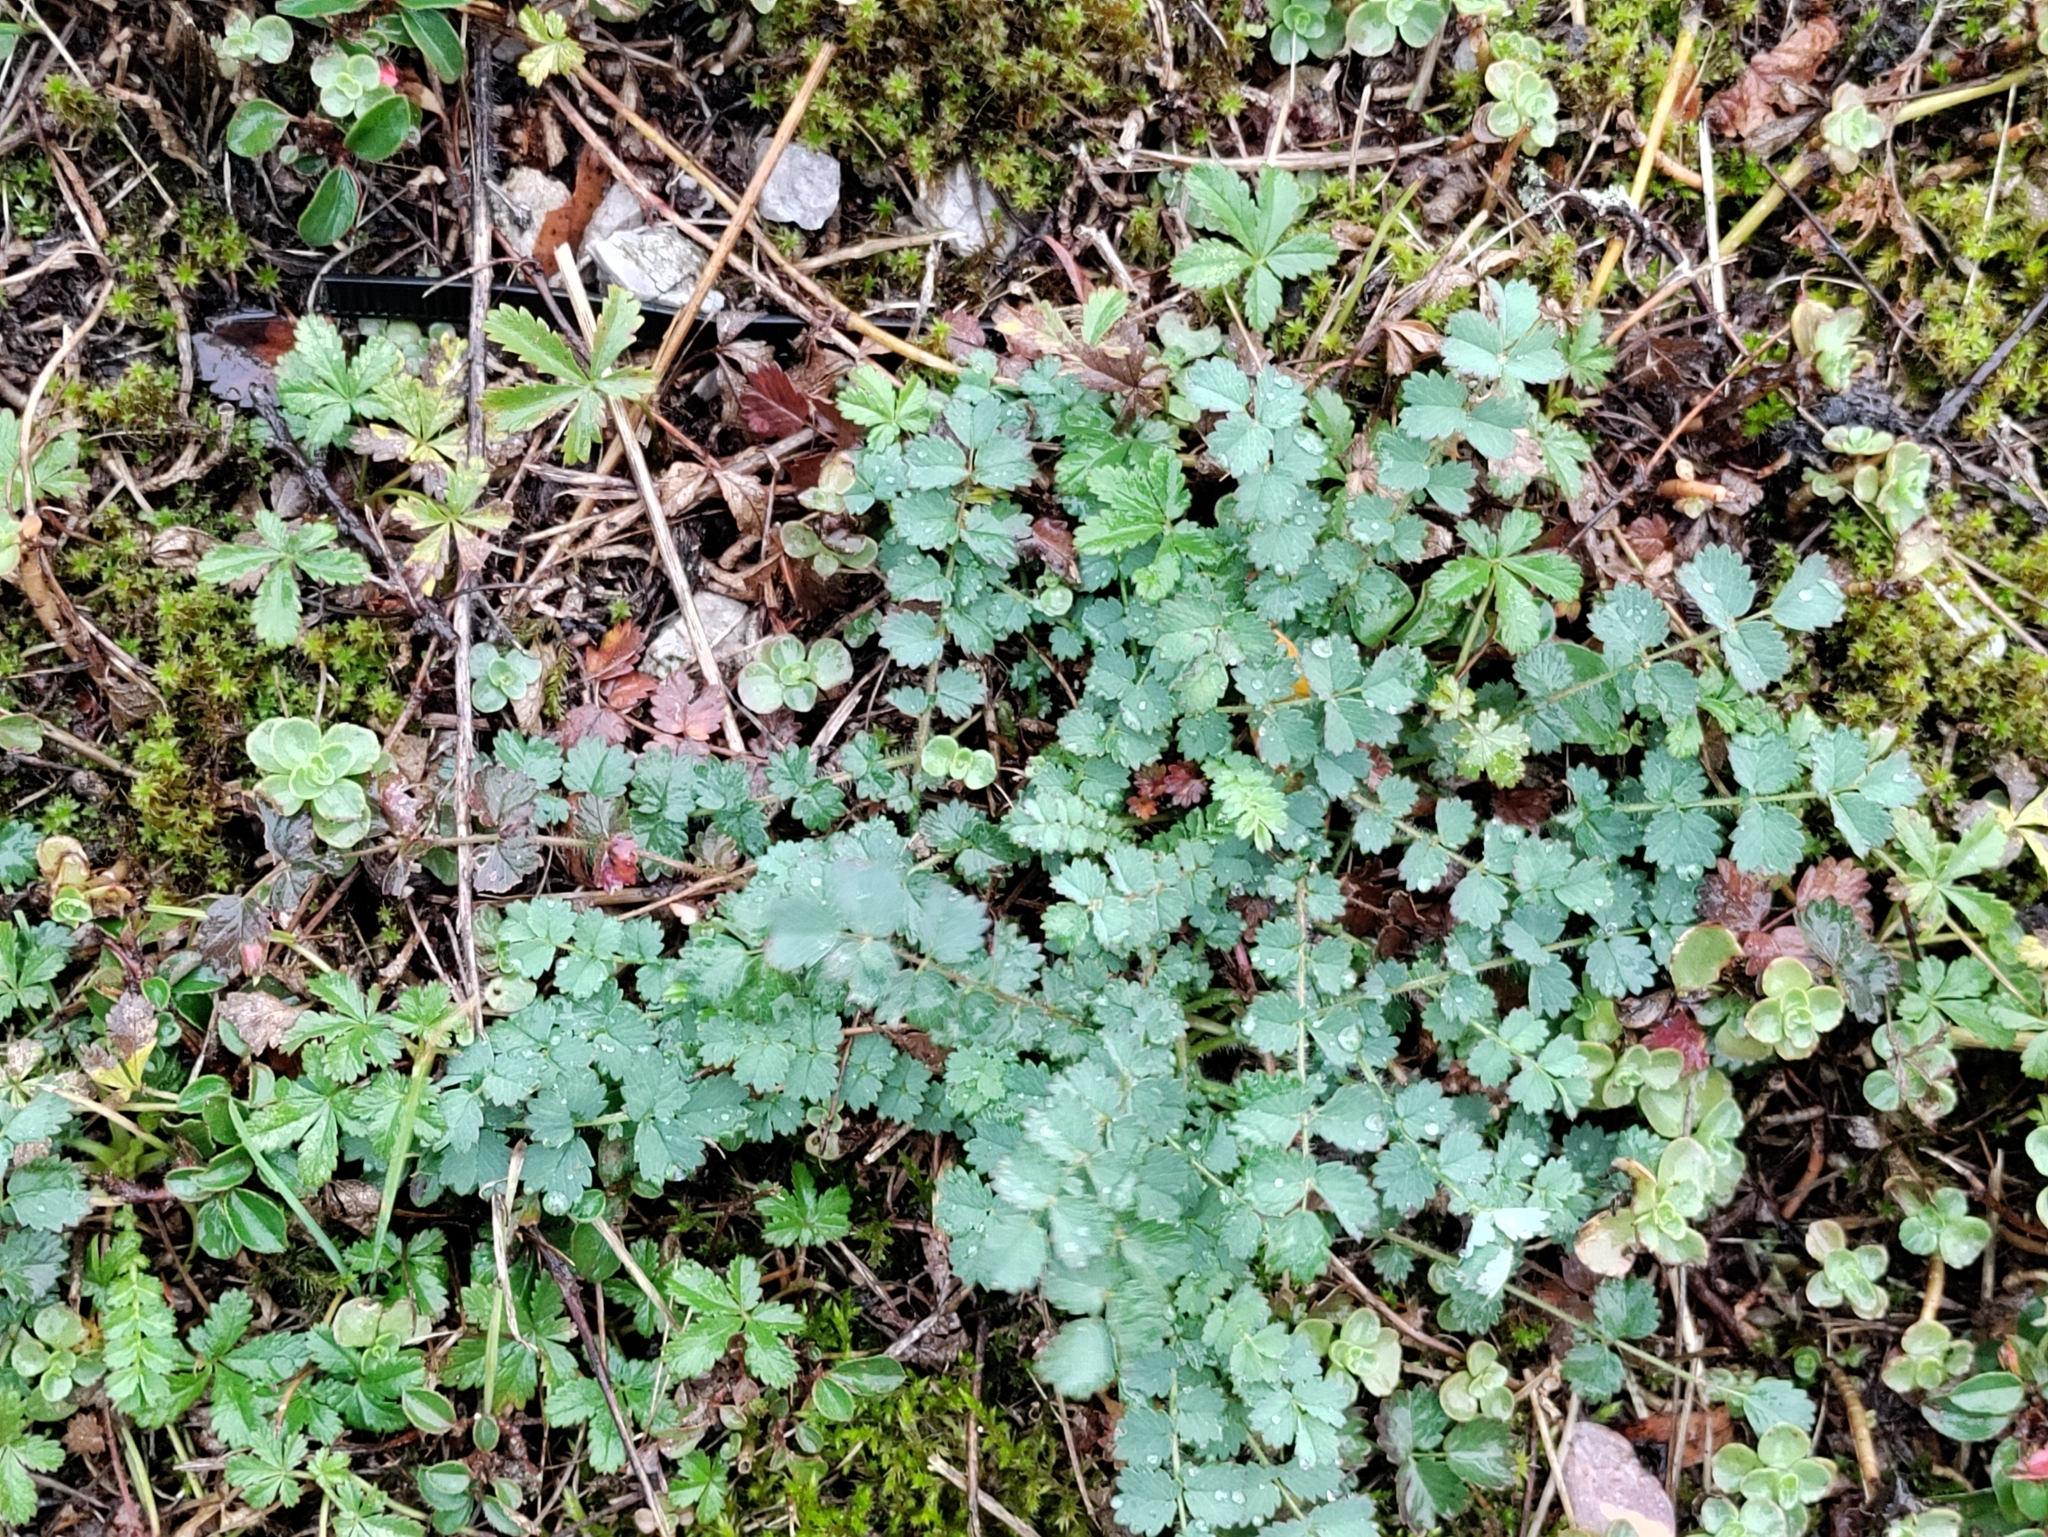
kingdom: Plantae
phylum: Tracheophyta
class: Magnoliopsida
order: Rosales
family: Rosaceae
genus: Poterium
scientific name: Poterium sanguisorba
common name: Salad burnet
